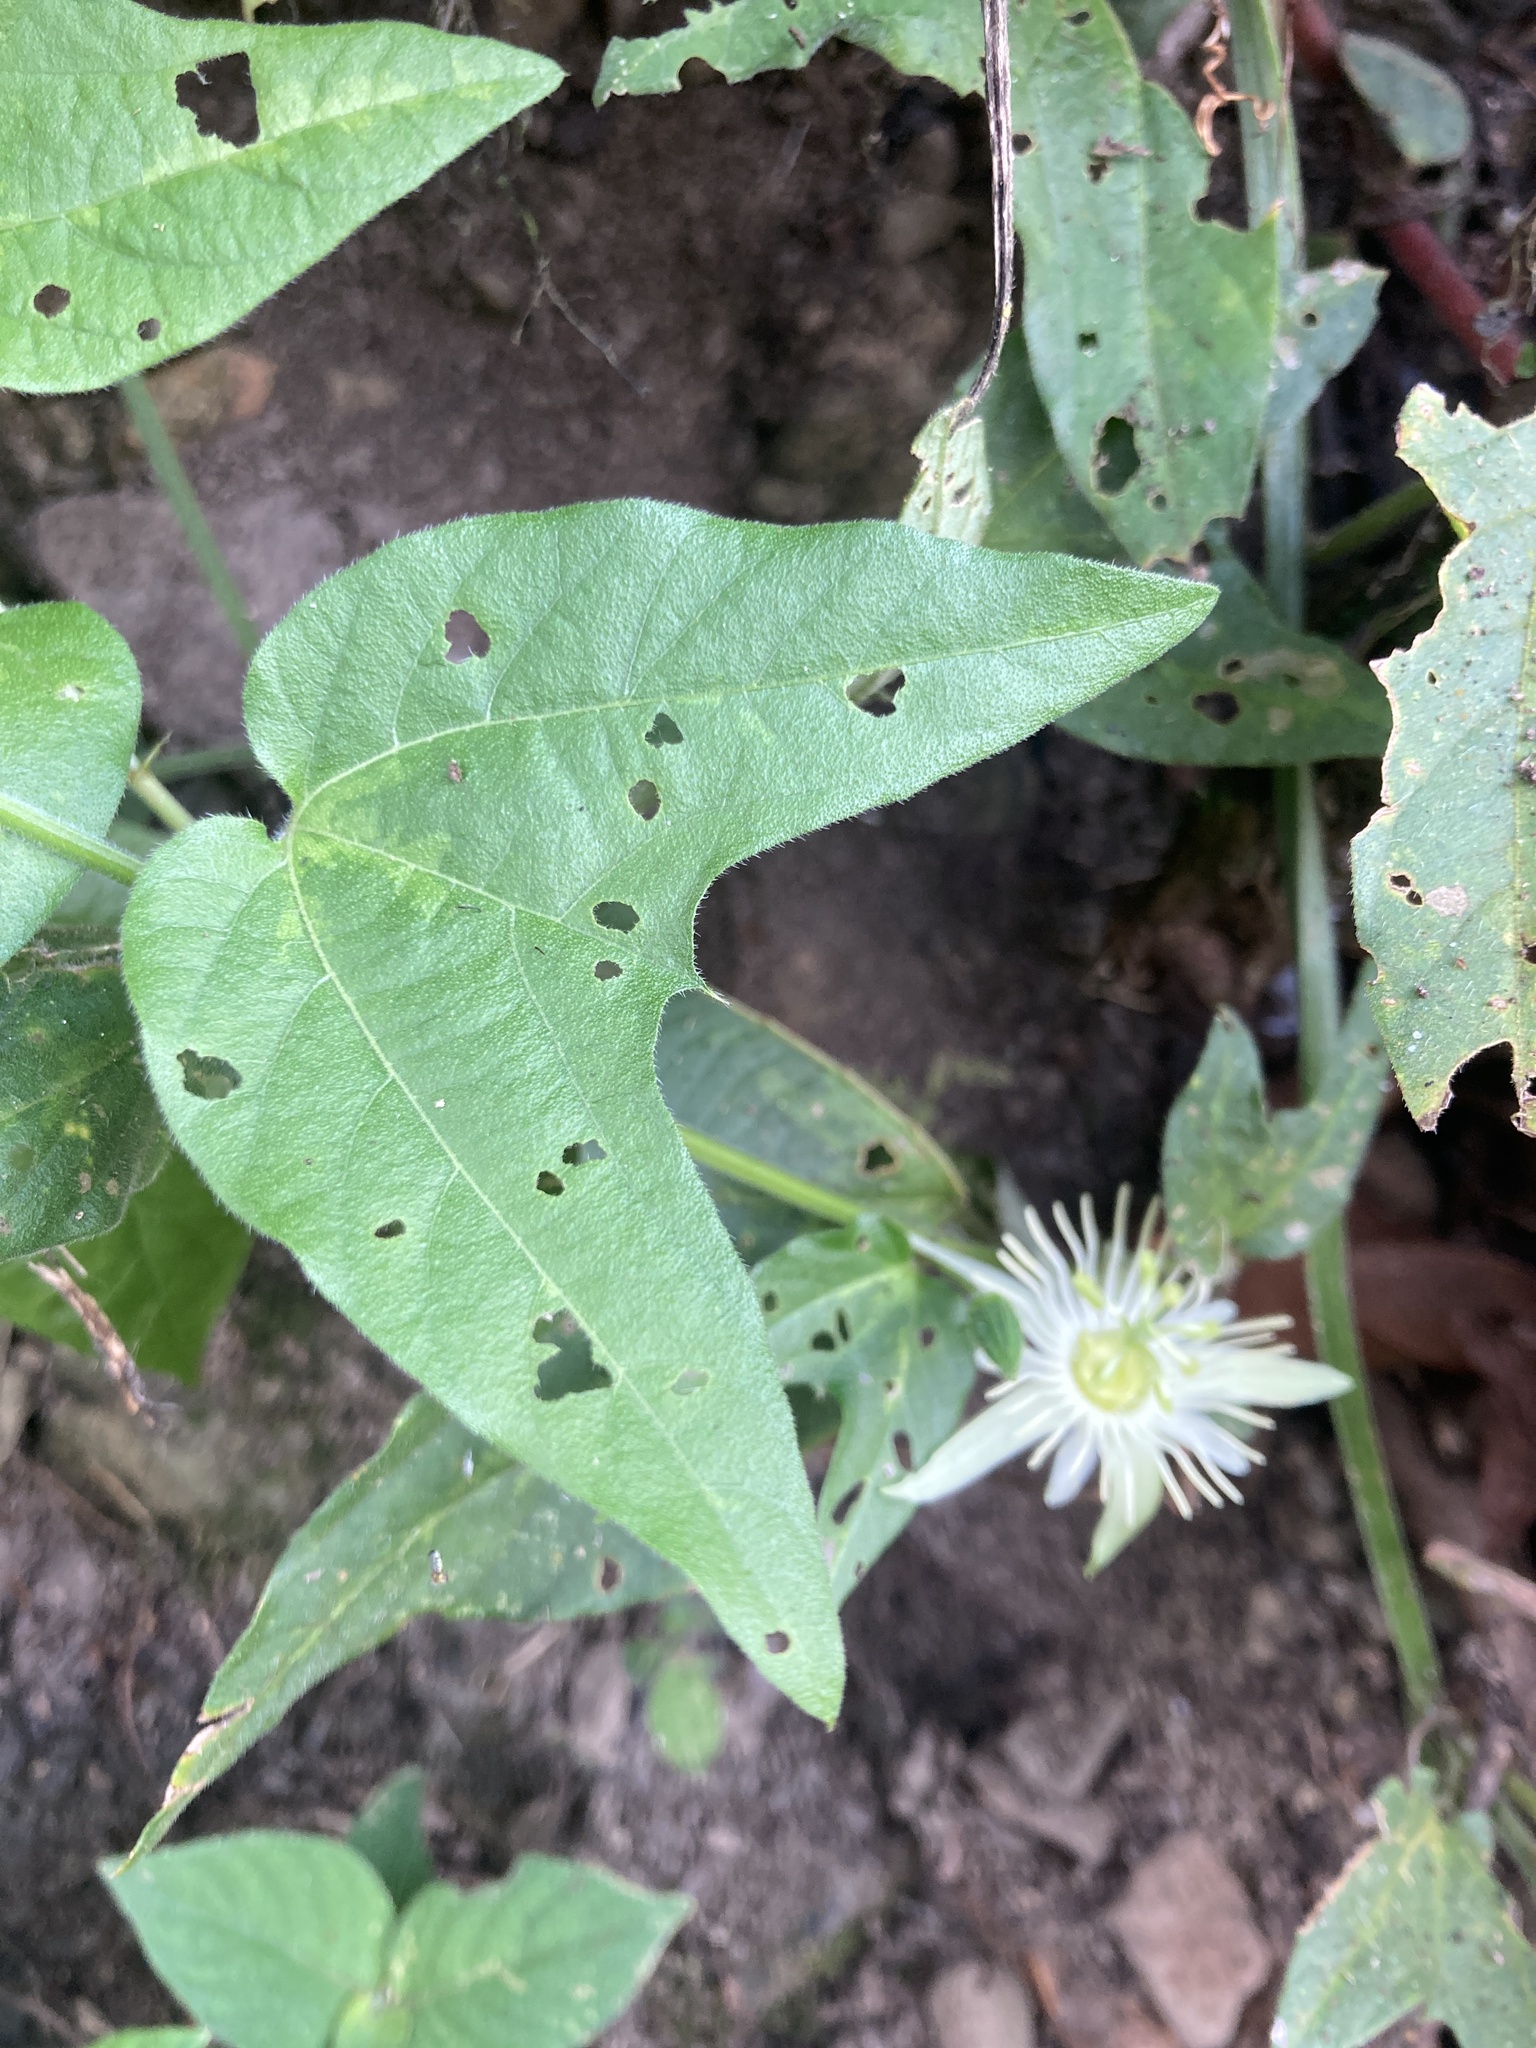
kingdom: Plantae
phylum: Tracheophyta
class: Magnoliopsida
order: Malpighiales
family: Passifloraceae
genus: Passiflora
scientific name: Passiflora capsularis
